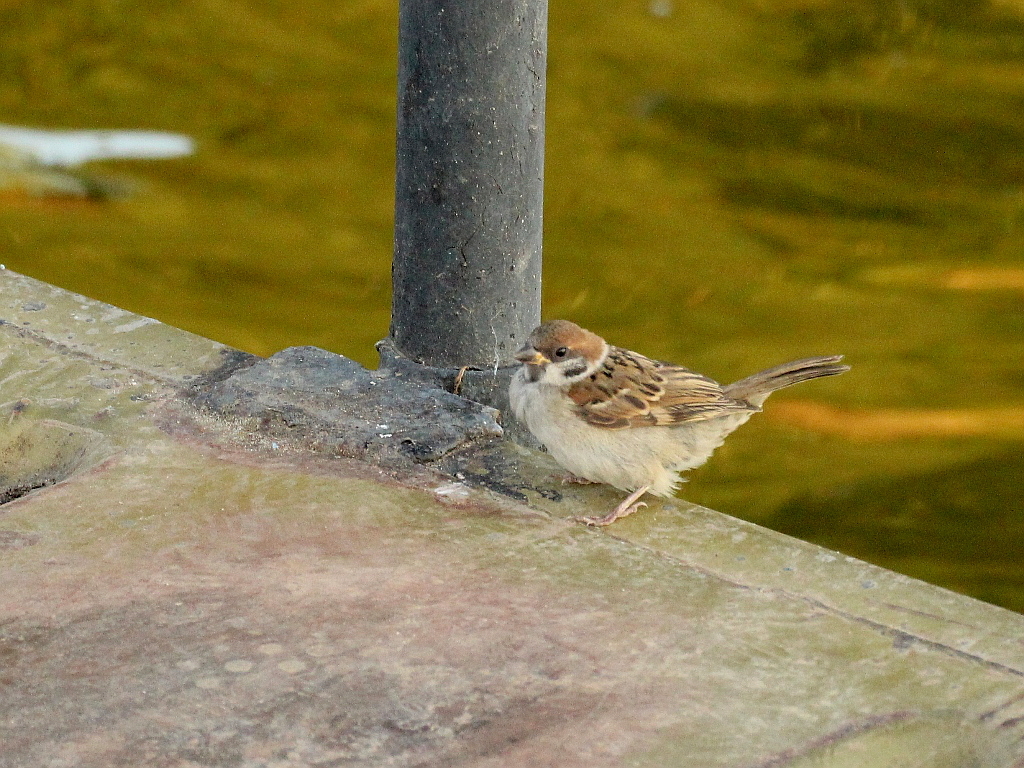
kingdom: Animalia
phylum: Chordata
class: Aves
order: Passeriformes
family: Passeridae
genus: Passer
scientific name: Passer montanus
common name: Eurasian tree sparrow
